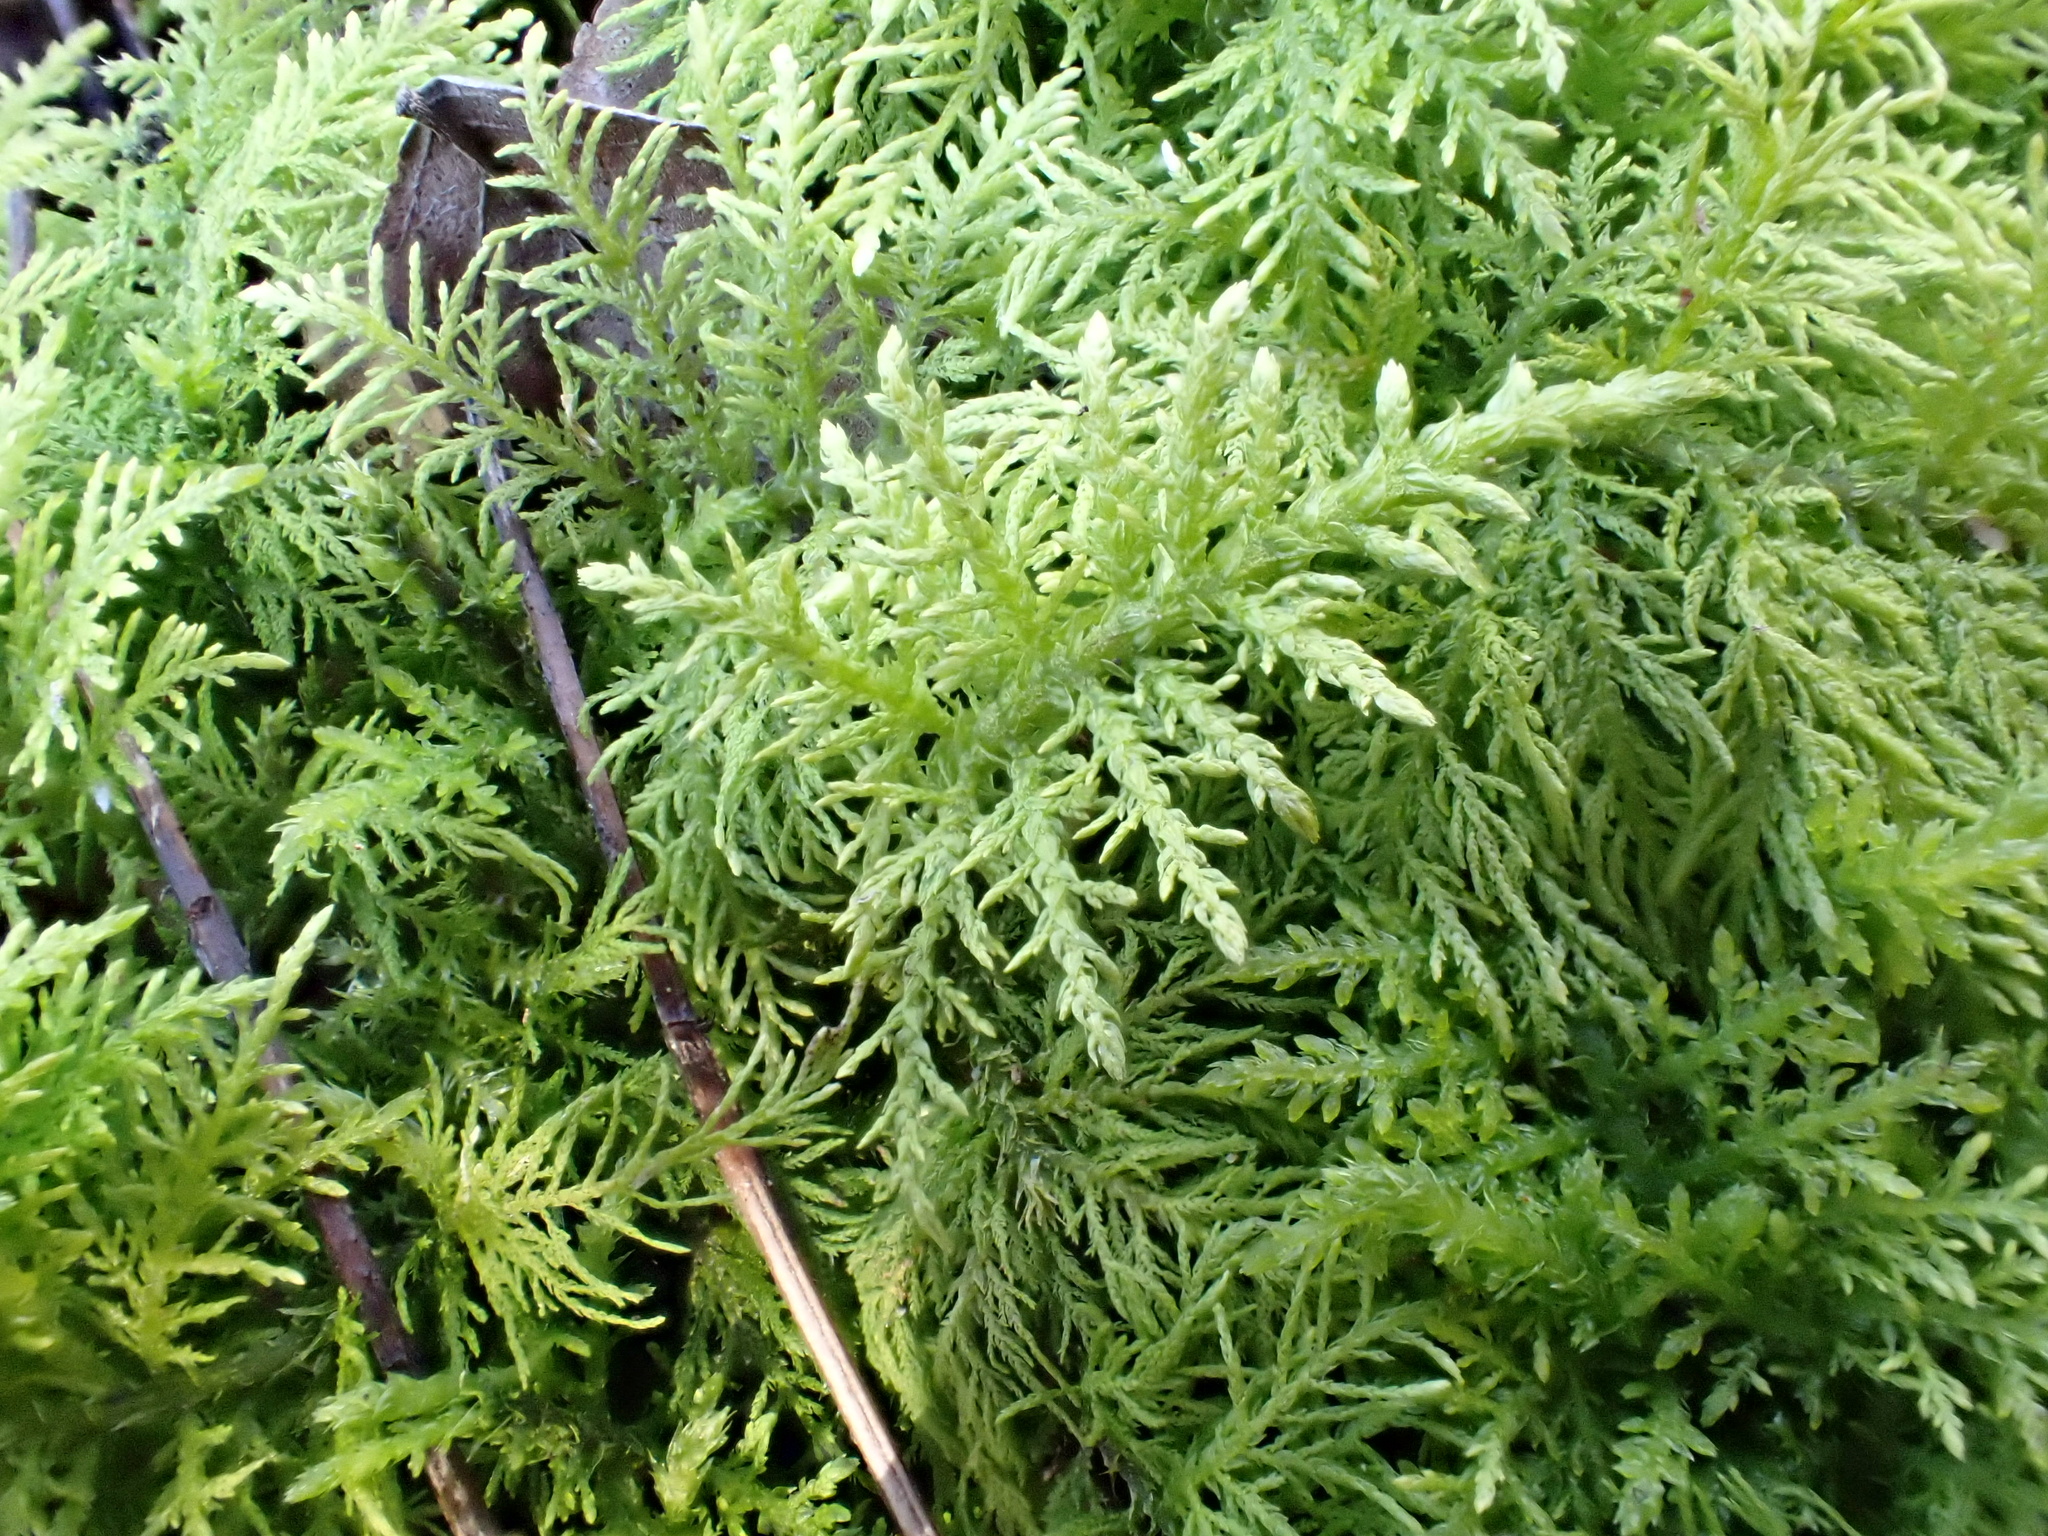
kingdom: Plantae
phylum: Bryophyta
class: Bryopsida
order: Hypnales
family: Thuidiaceae
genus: Thuidium
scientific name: Thuidium tamariscinum
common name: Common tamarisk-moss
